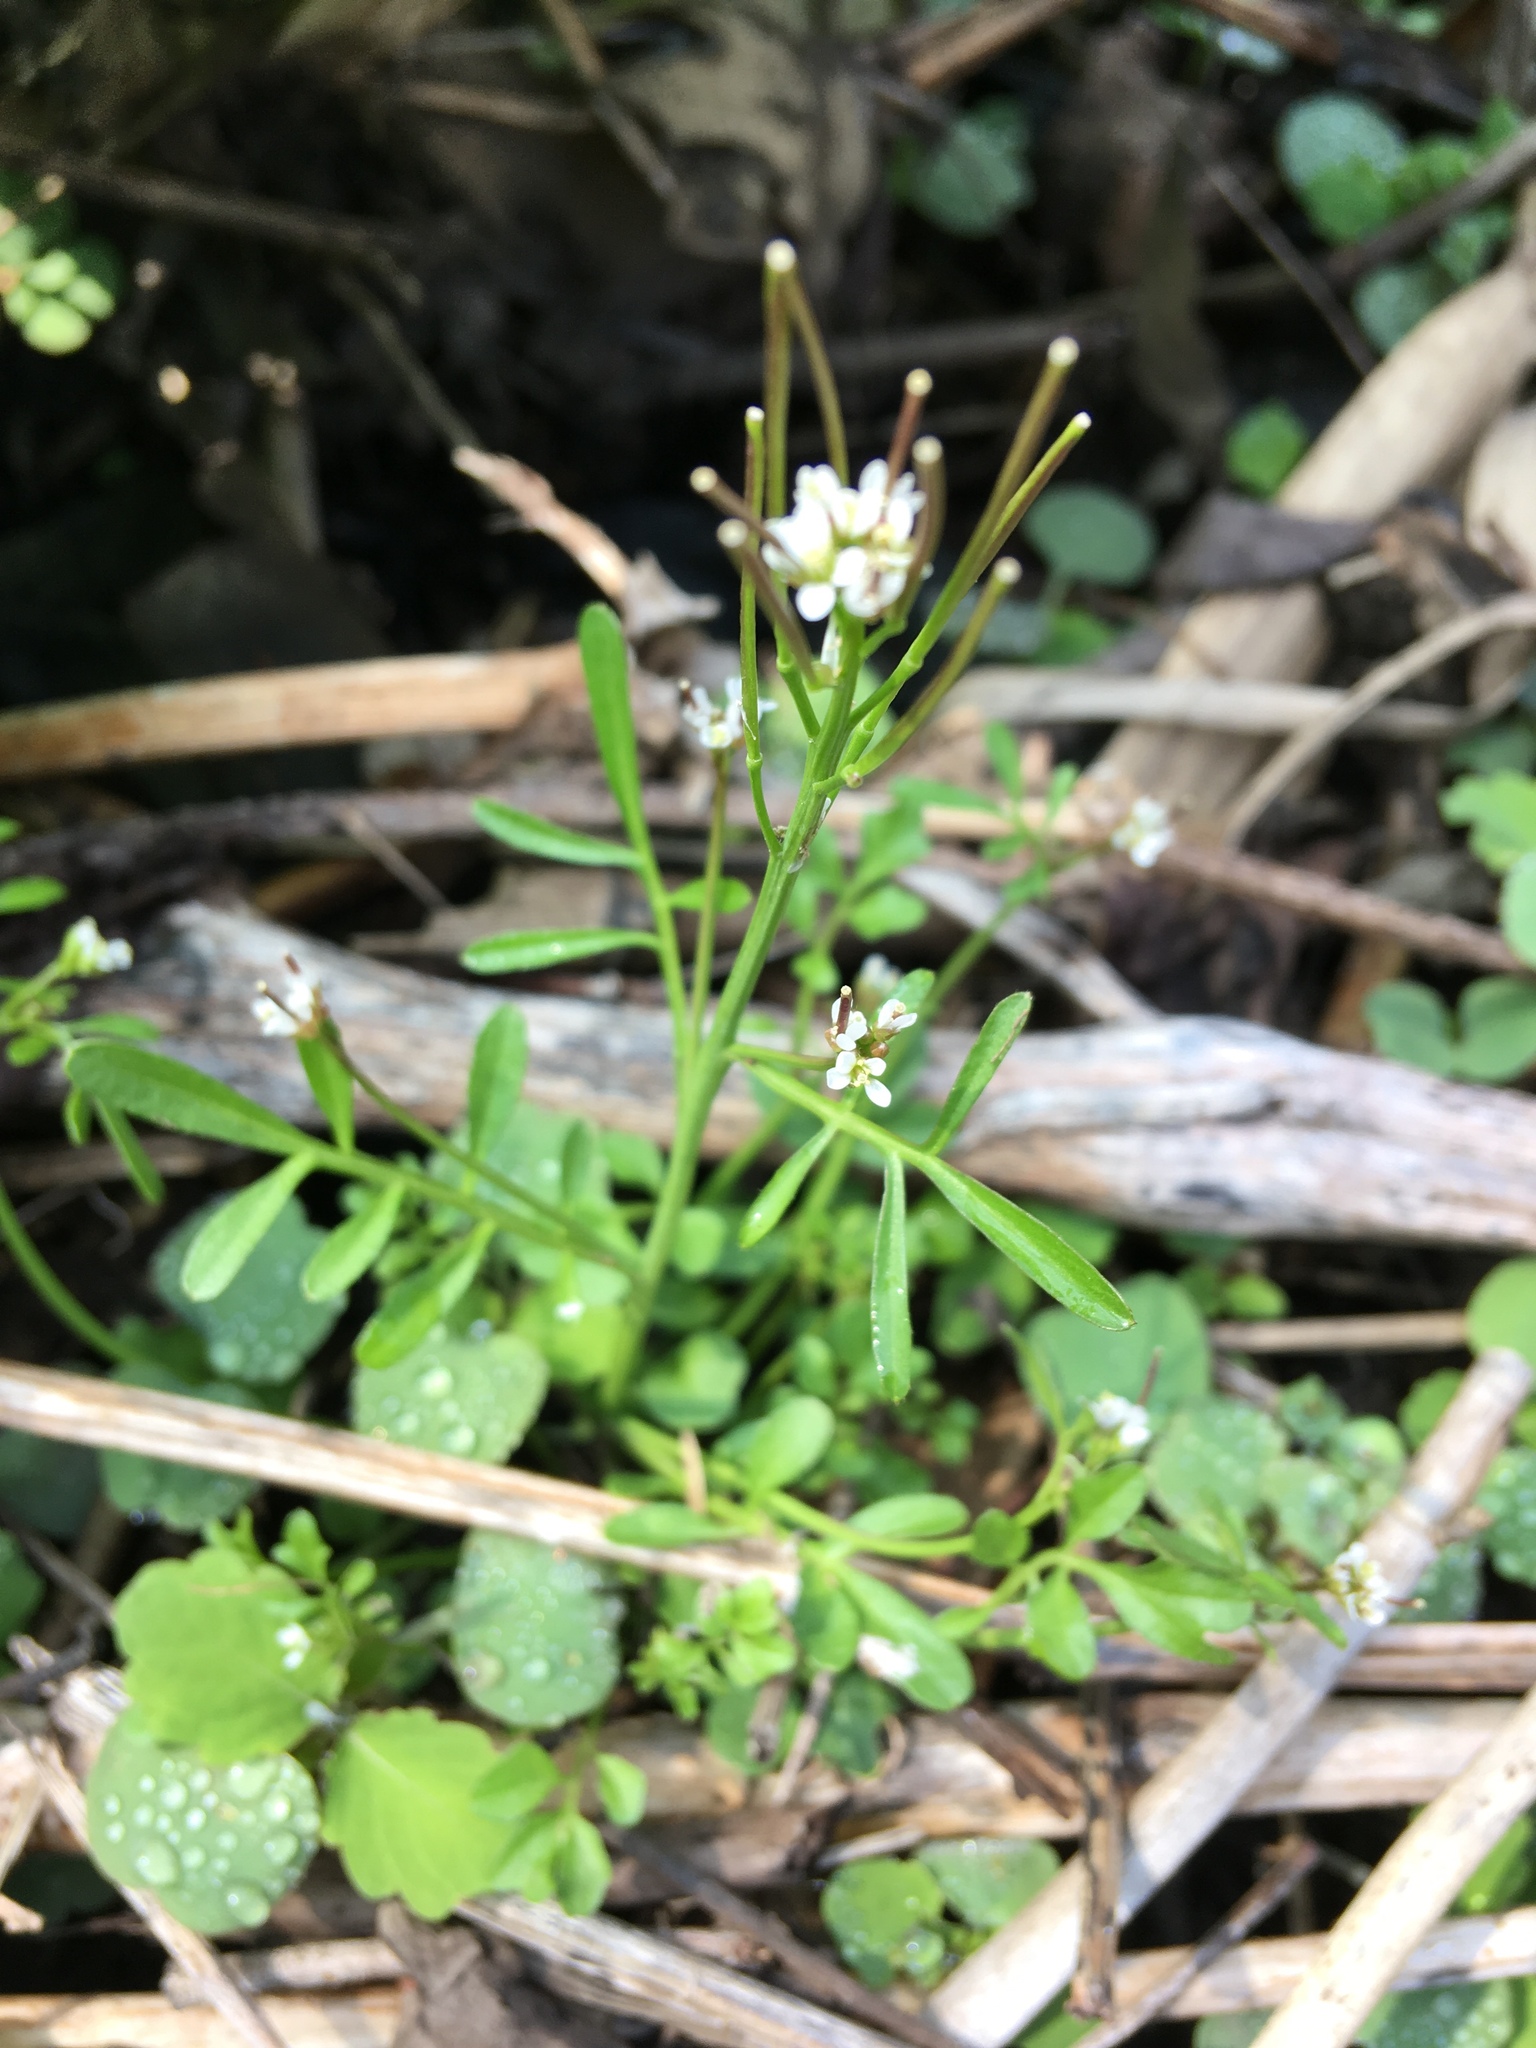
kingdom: Plantae
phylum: Tracheophyta
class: Magnoliopsida
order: Brassicales
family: Brassicaceae
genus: Cardamine
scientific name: Cardamine pensylvanica
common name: Pennsylvania bittercress
